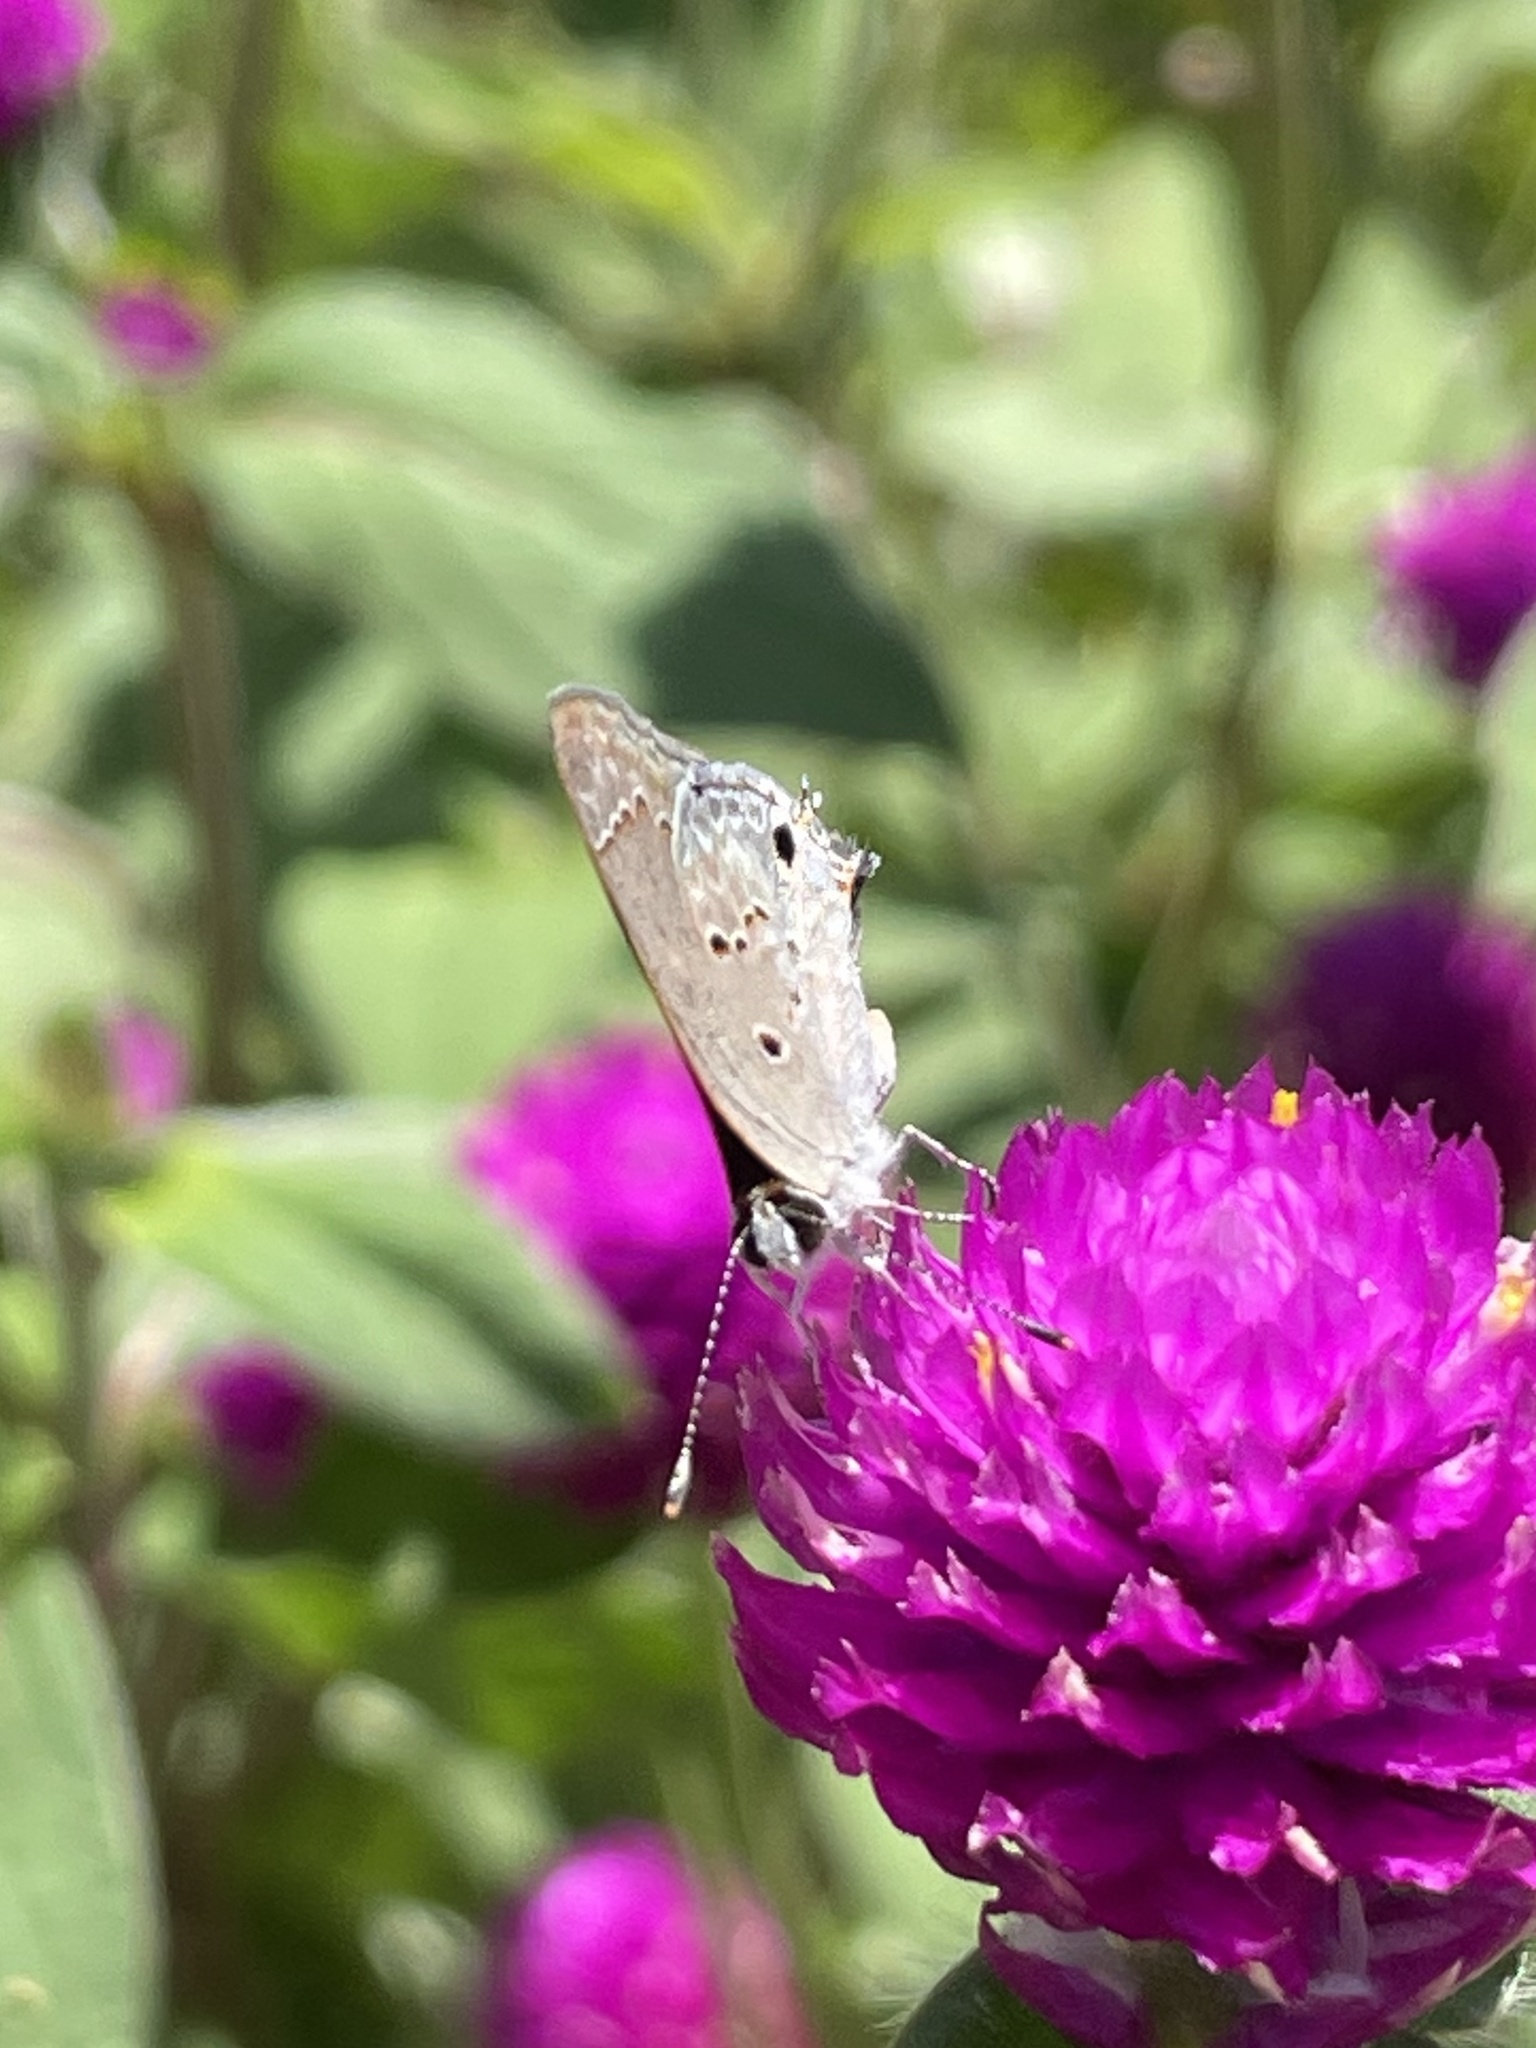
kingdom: Animalia
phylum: Arthropoda
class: Insecta
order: Lepidoptera
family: Lycaenidae
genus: Callicista
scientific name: Callicista columella
